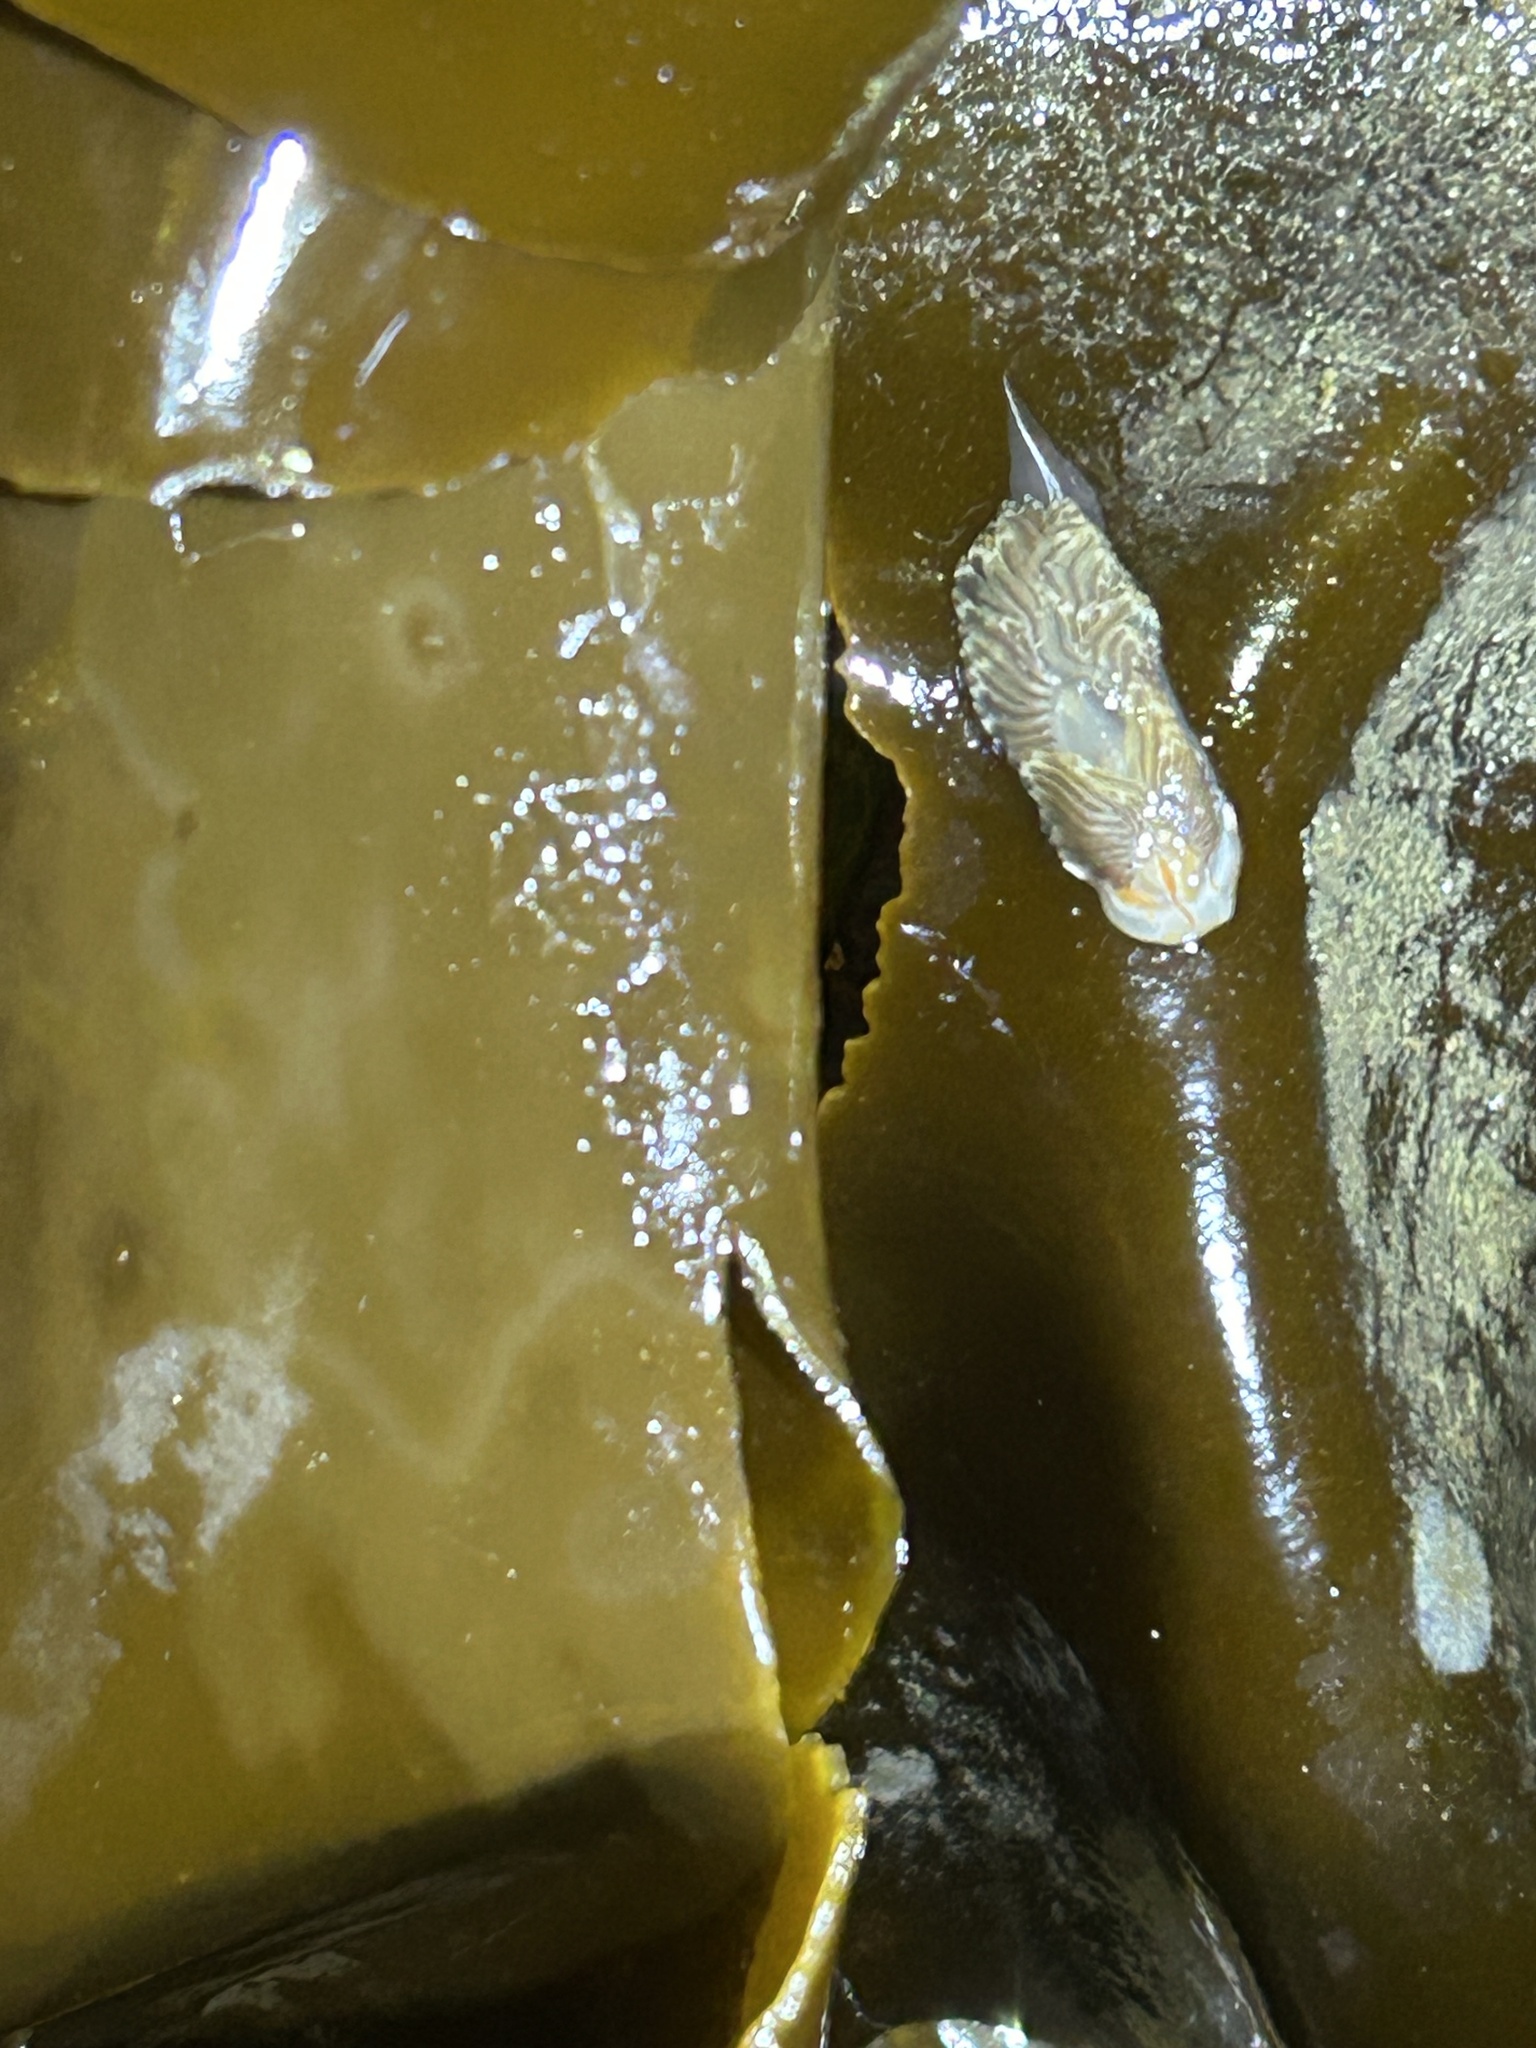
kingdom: Animalia
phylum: Mollusca
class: Gastropoda
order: Nudibranchia
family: Myrrhinidae
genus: Hermissenda
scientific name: Hermissenda crassicornis
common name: Hermissenda
